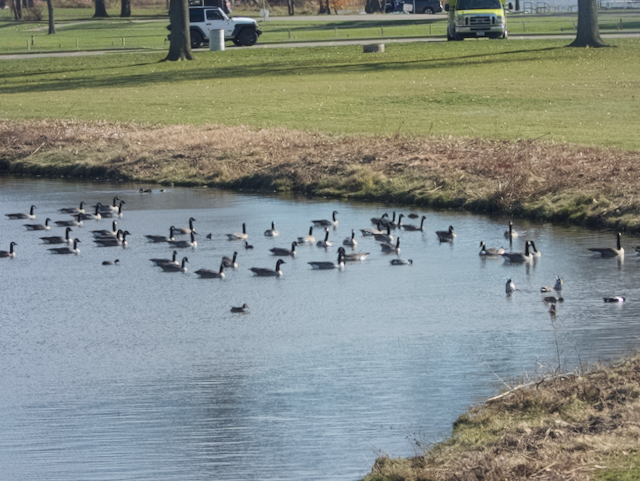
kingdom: Animalia
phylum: Chordata
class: Aves
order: Anseriformes
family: Anatidae
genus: Branta
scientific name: Branta canadensis
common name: Canada goose
